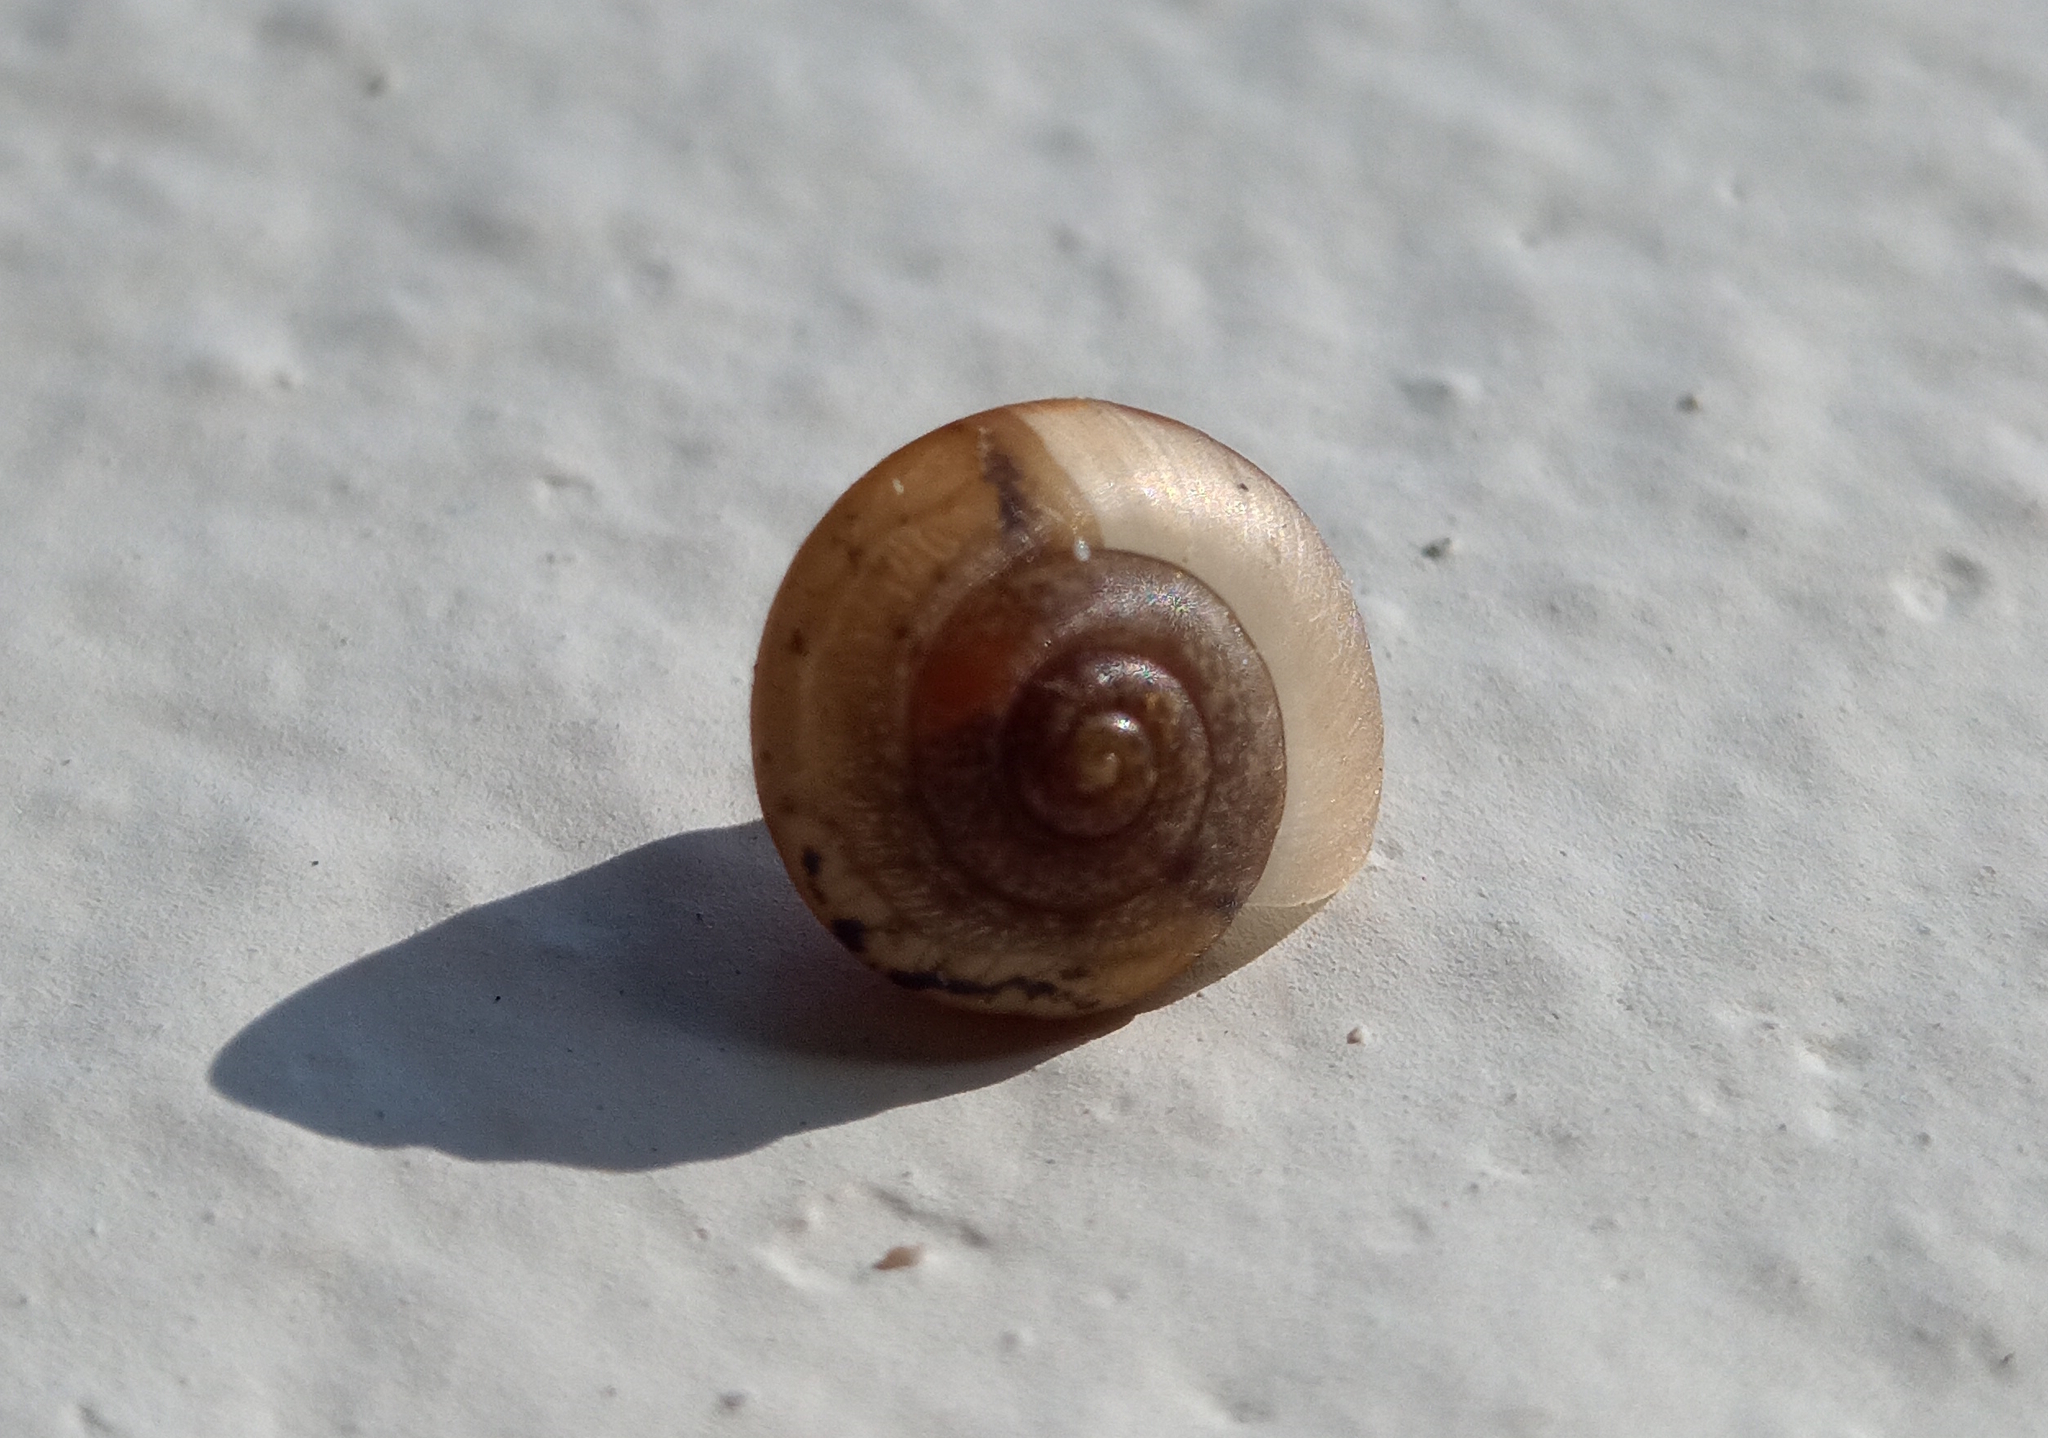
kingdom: Animalia
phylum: Mollusca
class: Gastropoda
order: Stylommatophora
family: Camaenidae
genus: Bradybaena
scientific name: Bradybaena similaris
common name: Asian trampsnail
